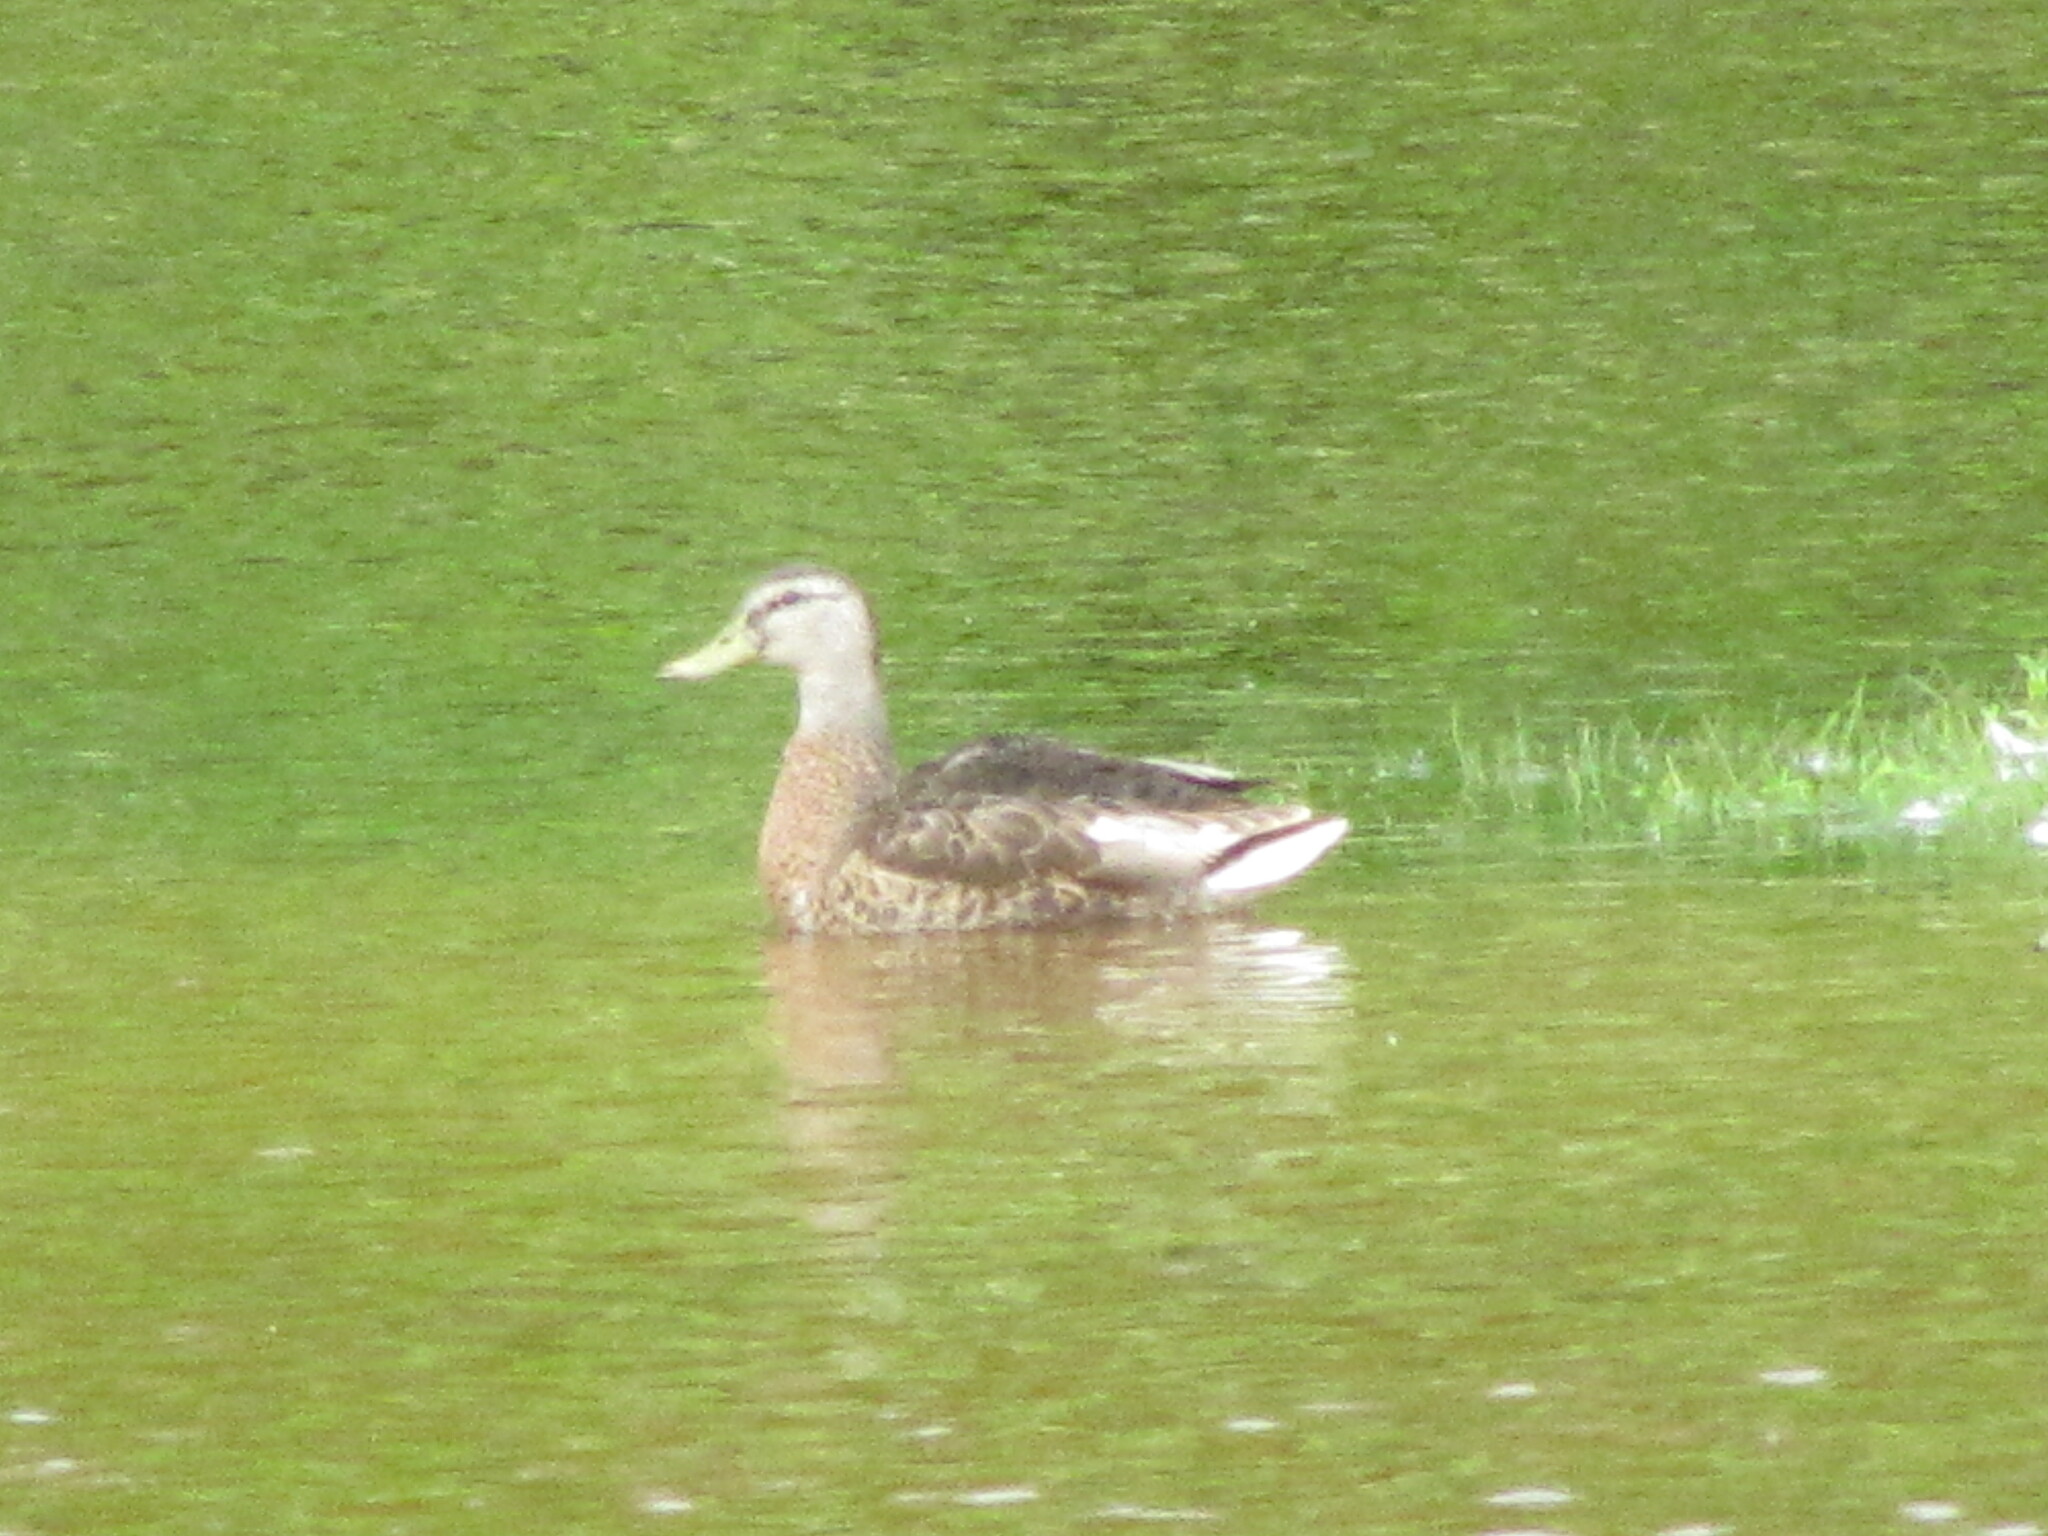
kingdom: Animalia
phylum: Chordata
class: Aves
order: Anseriformes
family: Anatidae
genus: Anas
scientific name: Anas platyrhynchos
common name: Mallard
